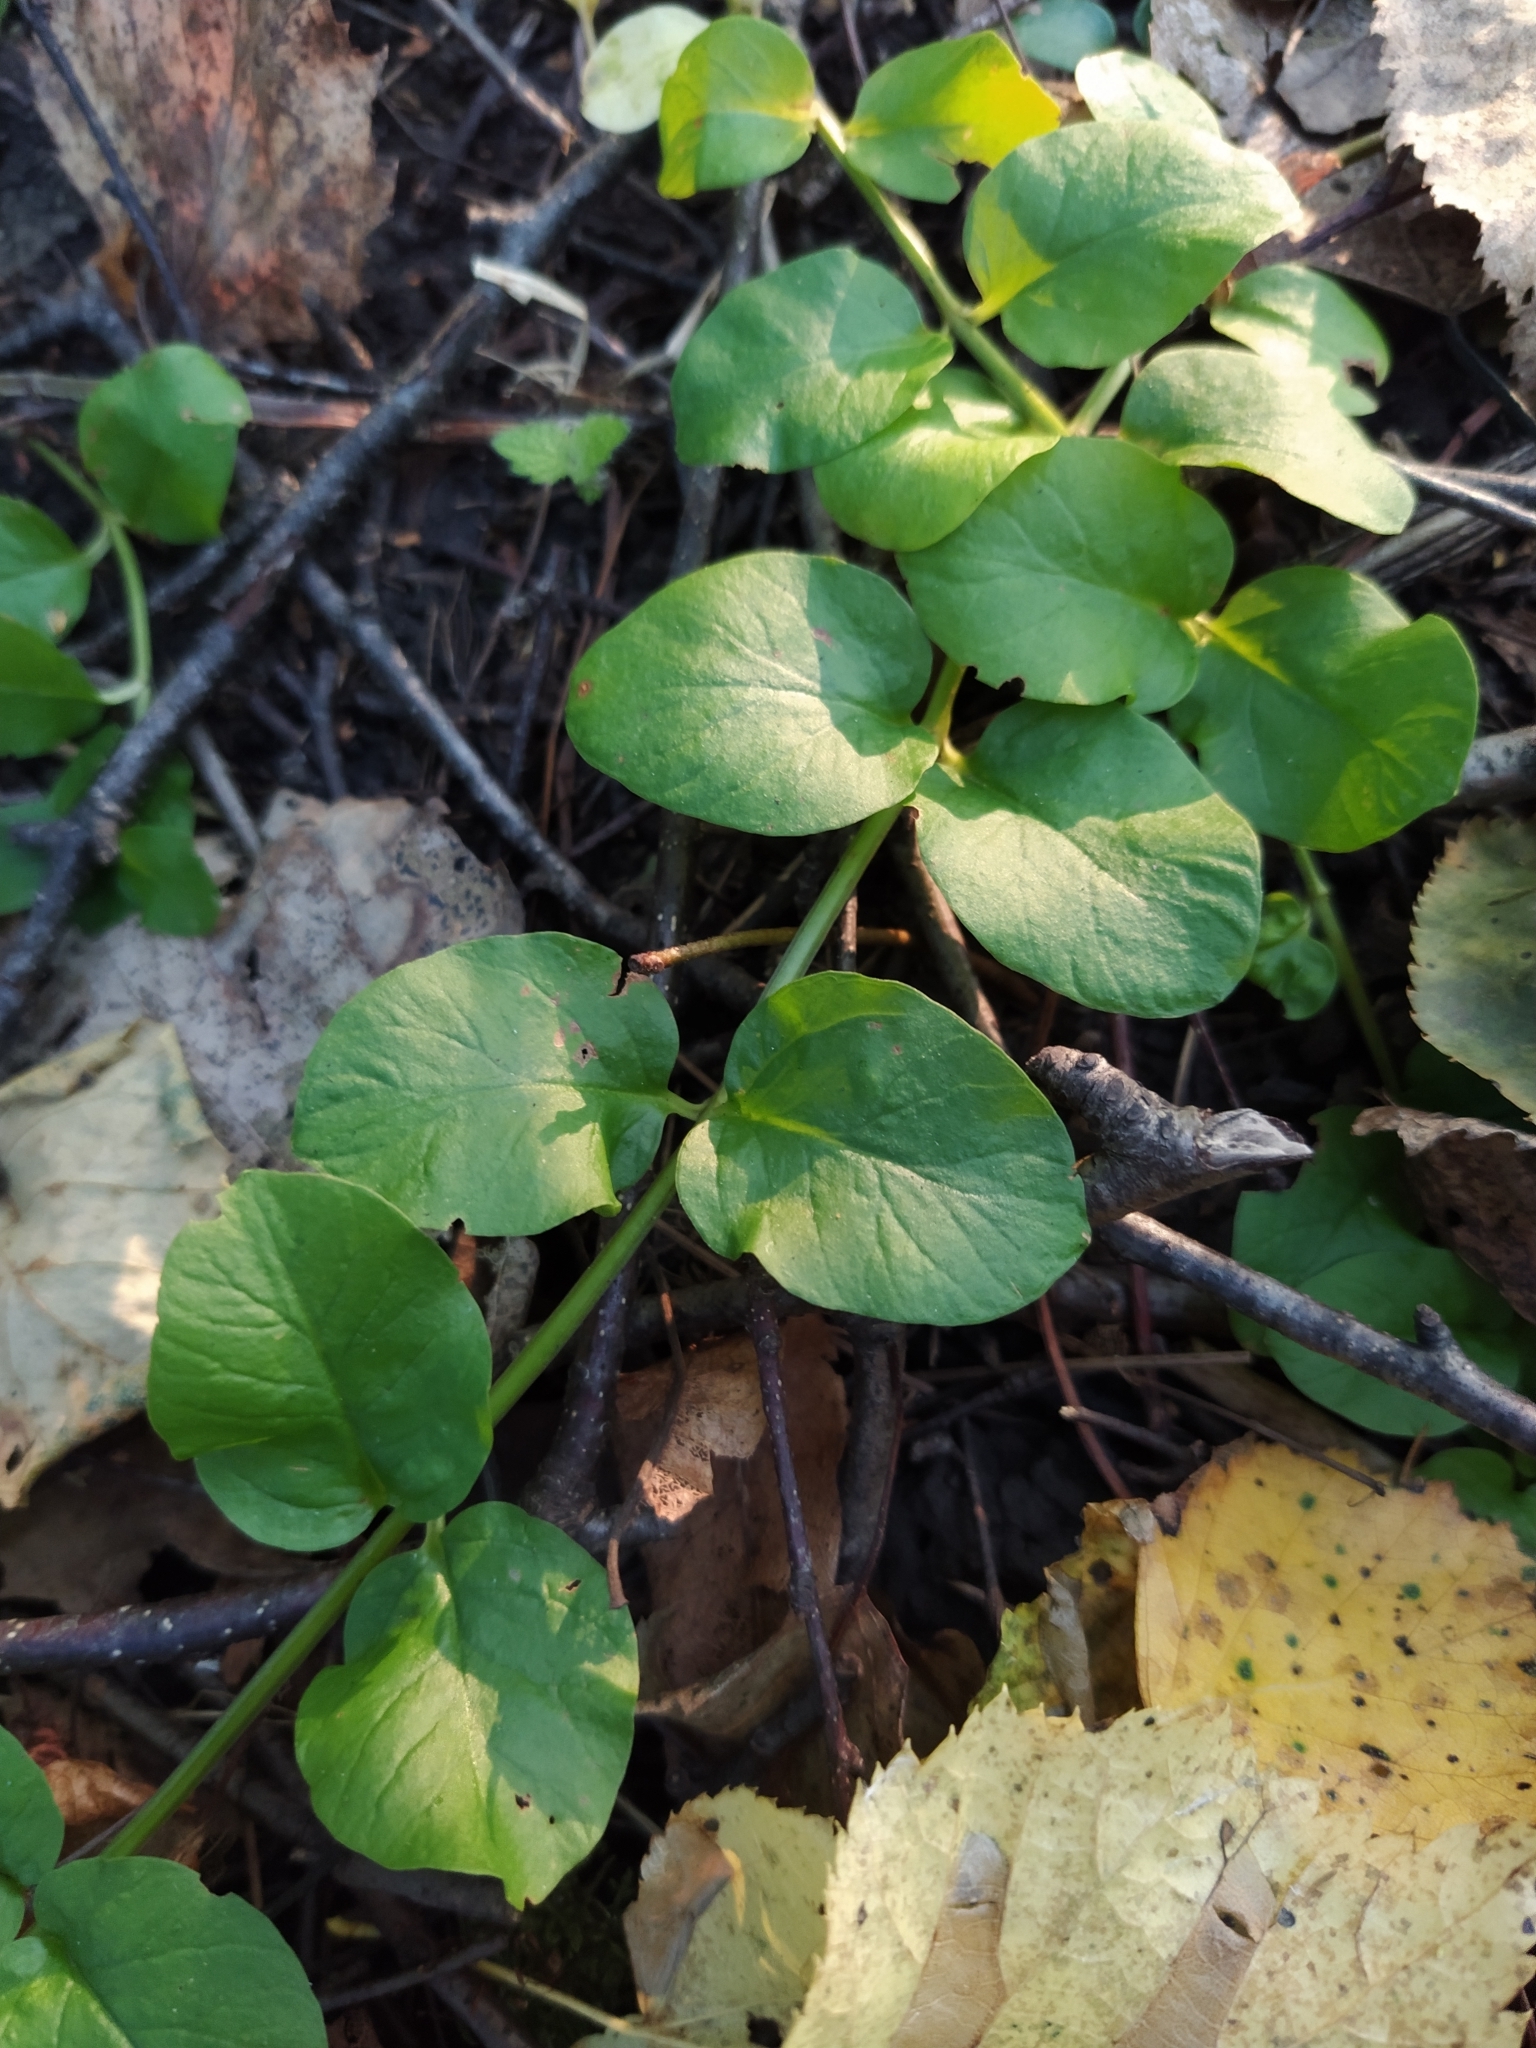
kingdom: Plantae
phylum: Tracheophyta
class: Magnoliopsida
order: Ericales
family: Primulaceae
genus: Lysimachia
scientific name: Lysimachia nummularia
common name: Moneywort
